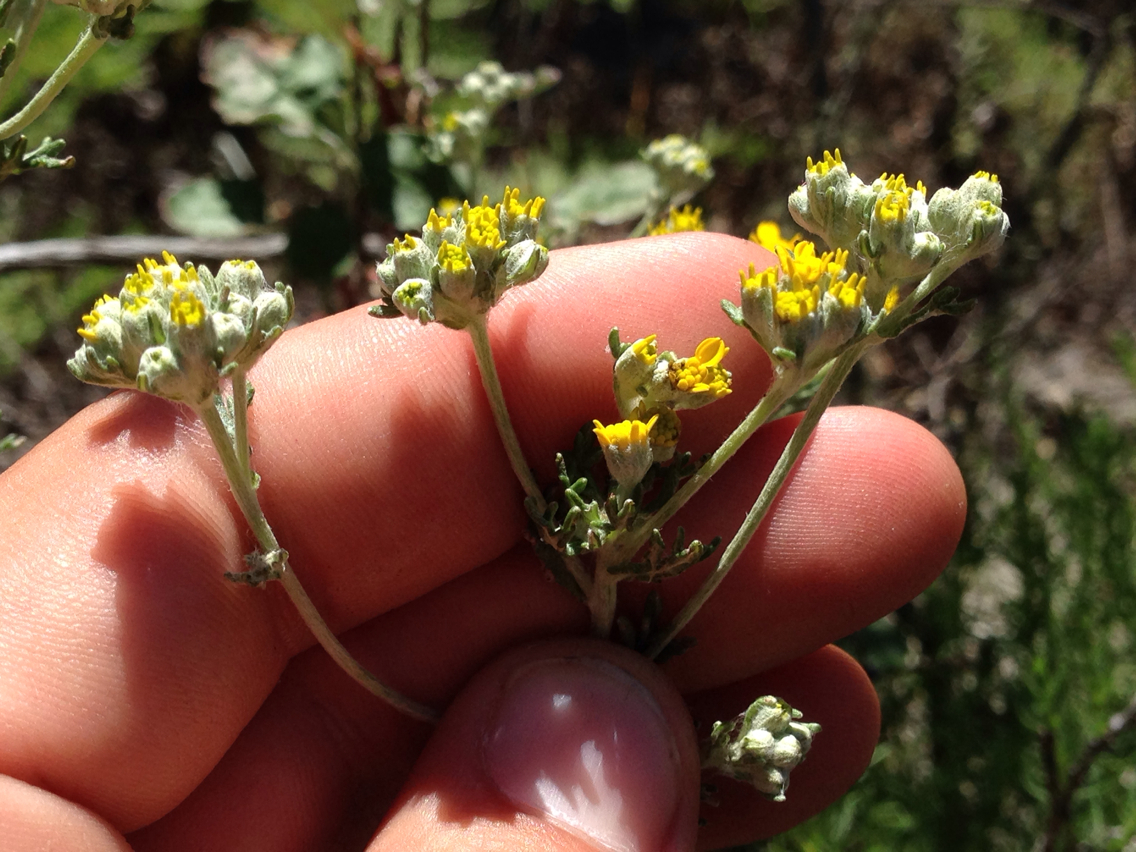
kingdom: Plantae
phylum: Tracheophyta
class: Magnoliopsida
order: Asterales
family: Asteraceae
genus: Eriophyllum
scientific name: Eriophyllum confertiflorum
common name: Golden-yarrow
